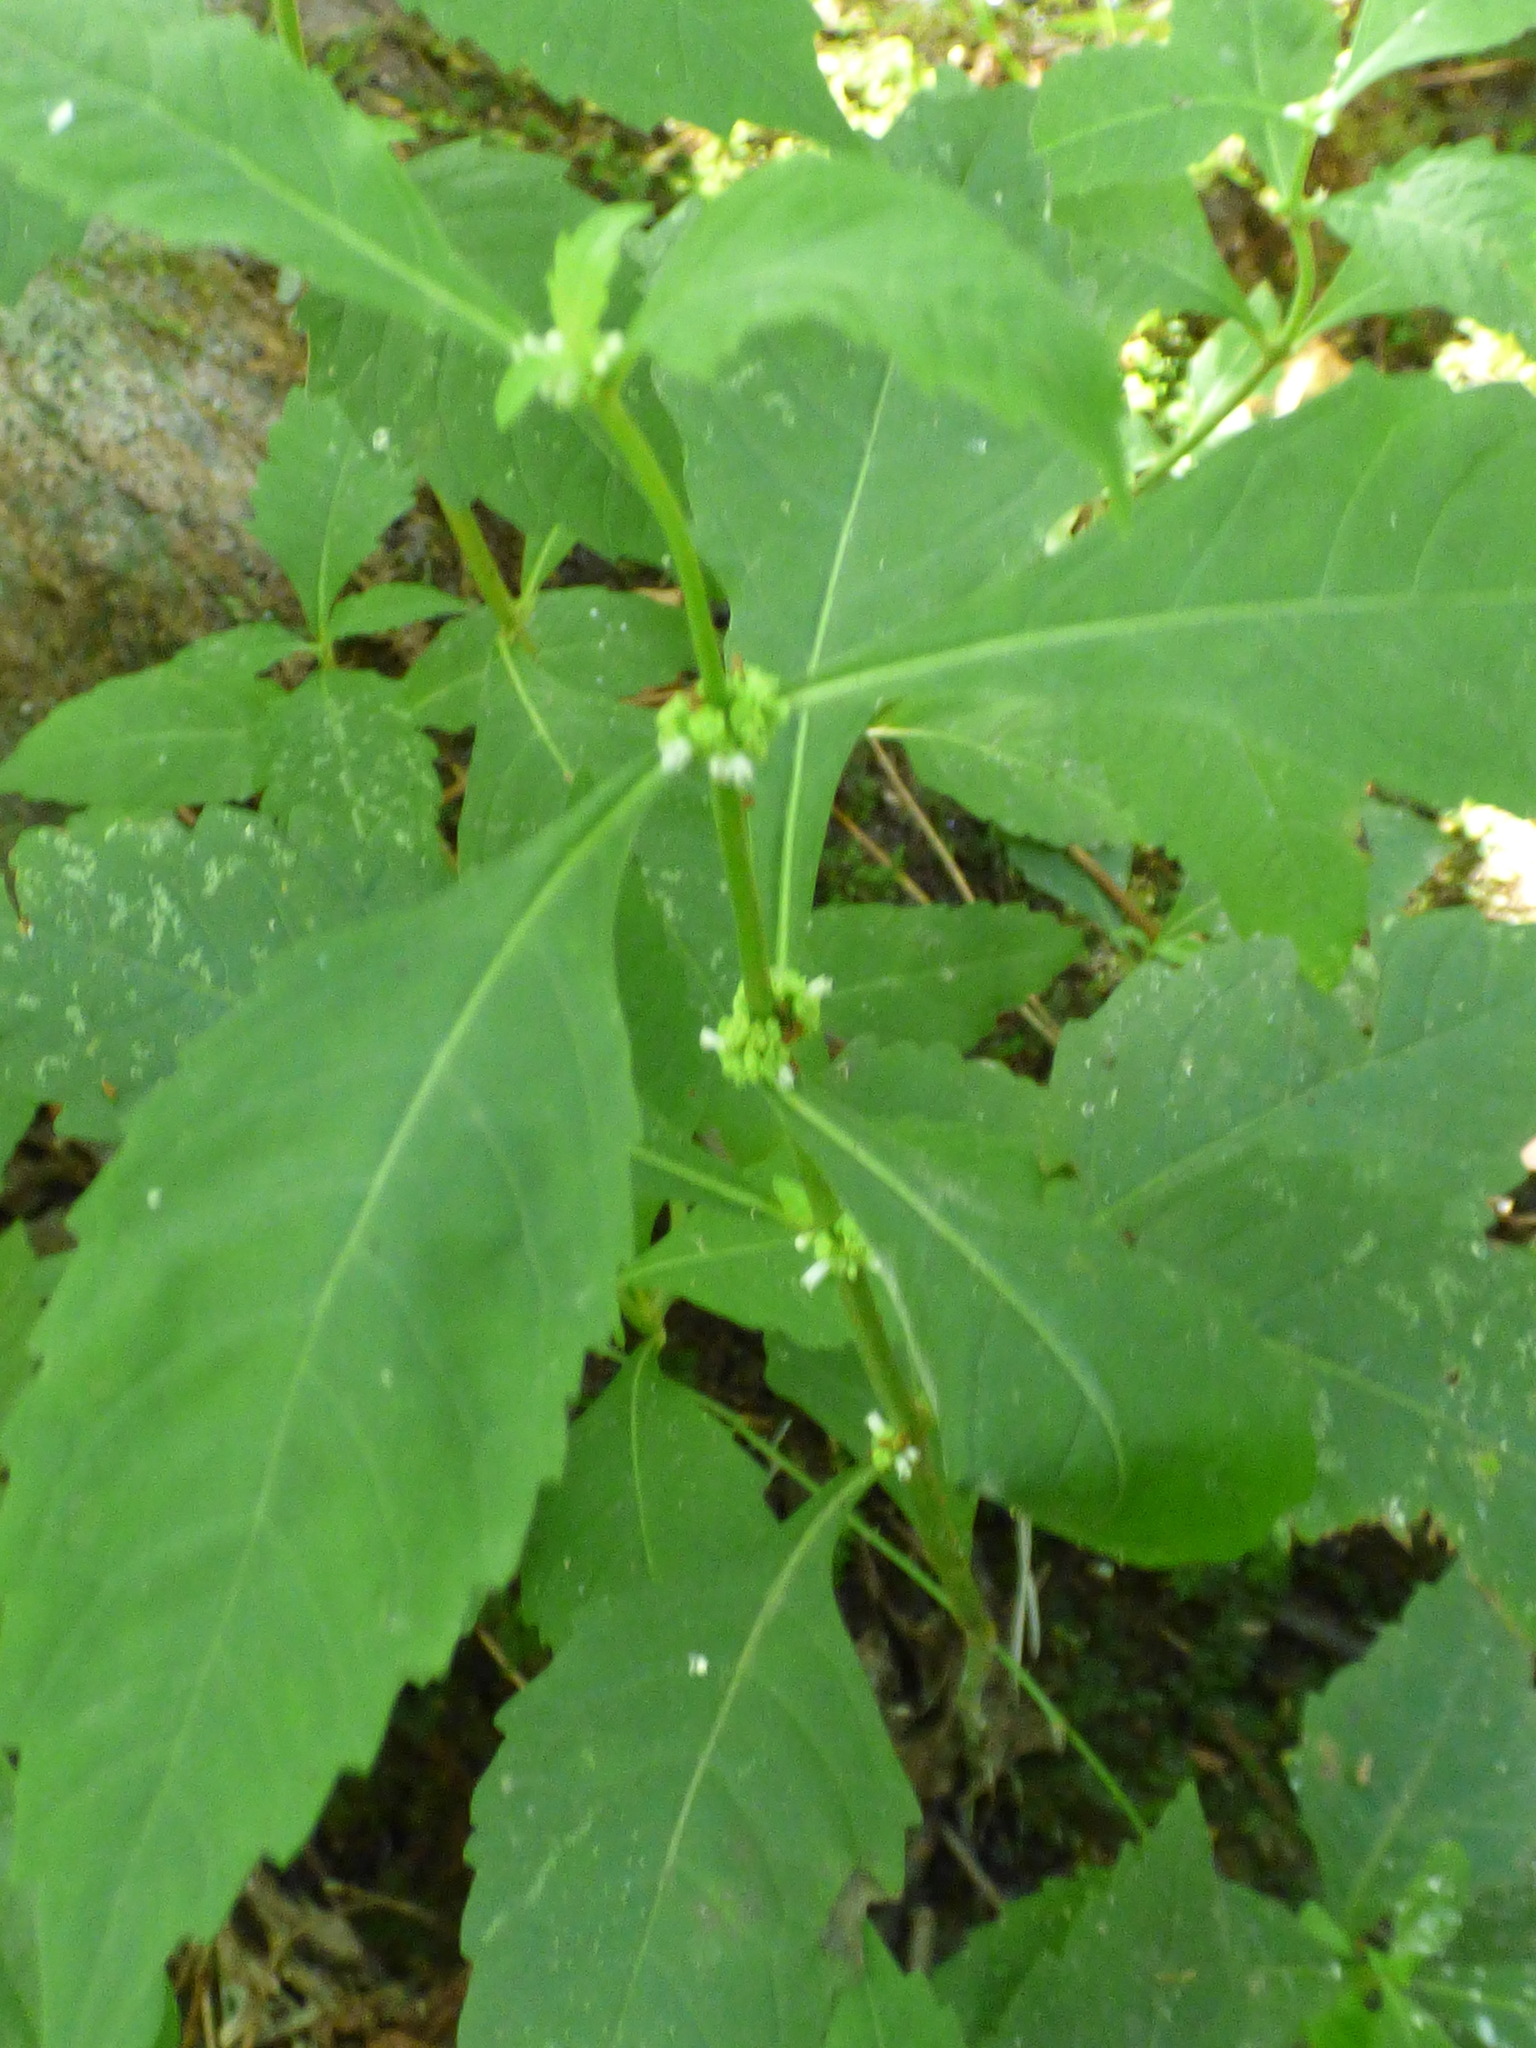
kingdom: Plantae
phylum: Tracheophyta
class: Magnoliopsida
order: Lamiales
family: Lamiaceae
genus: Lycopus
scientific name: Lycopus uniflorus
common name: Northern bugleweed
